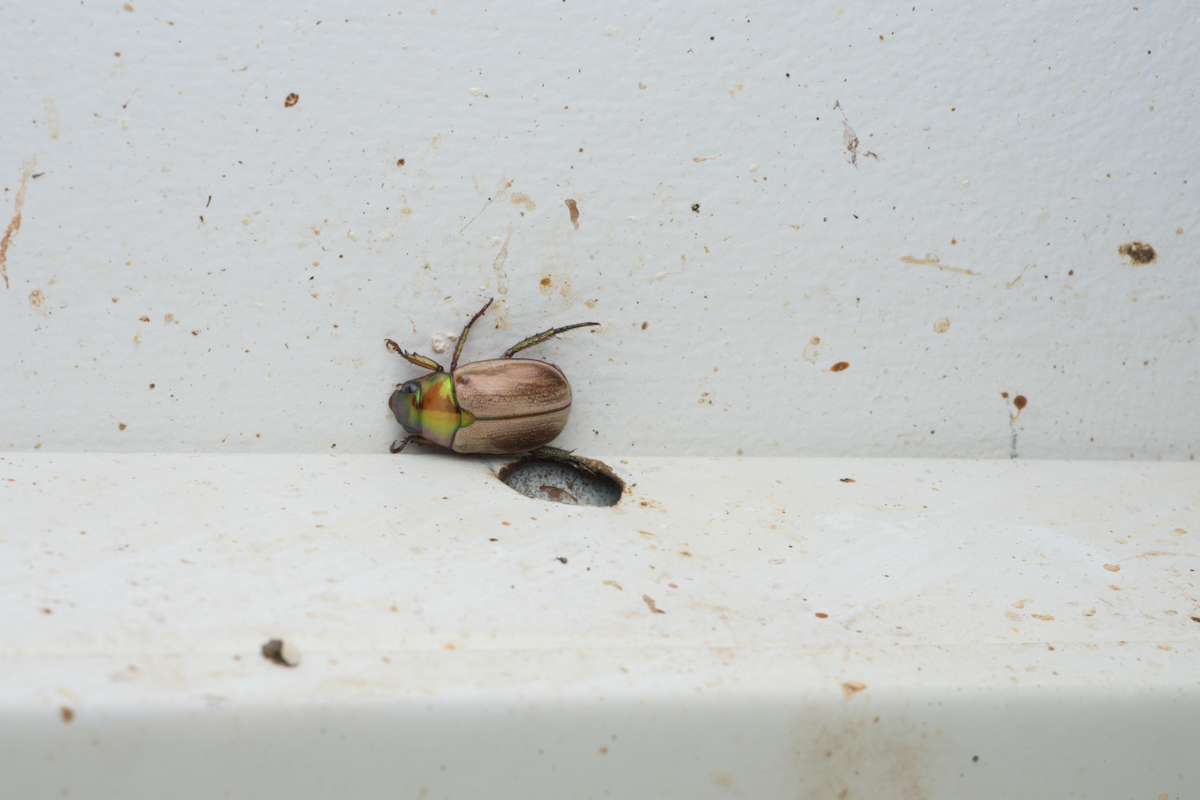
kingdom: Animalia
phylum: Arthropoda
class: Insecta
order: Coleoptera
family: Scarabaeidae
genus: Anoplognathus
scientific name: Anoplognathus daemeli
